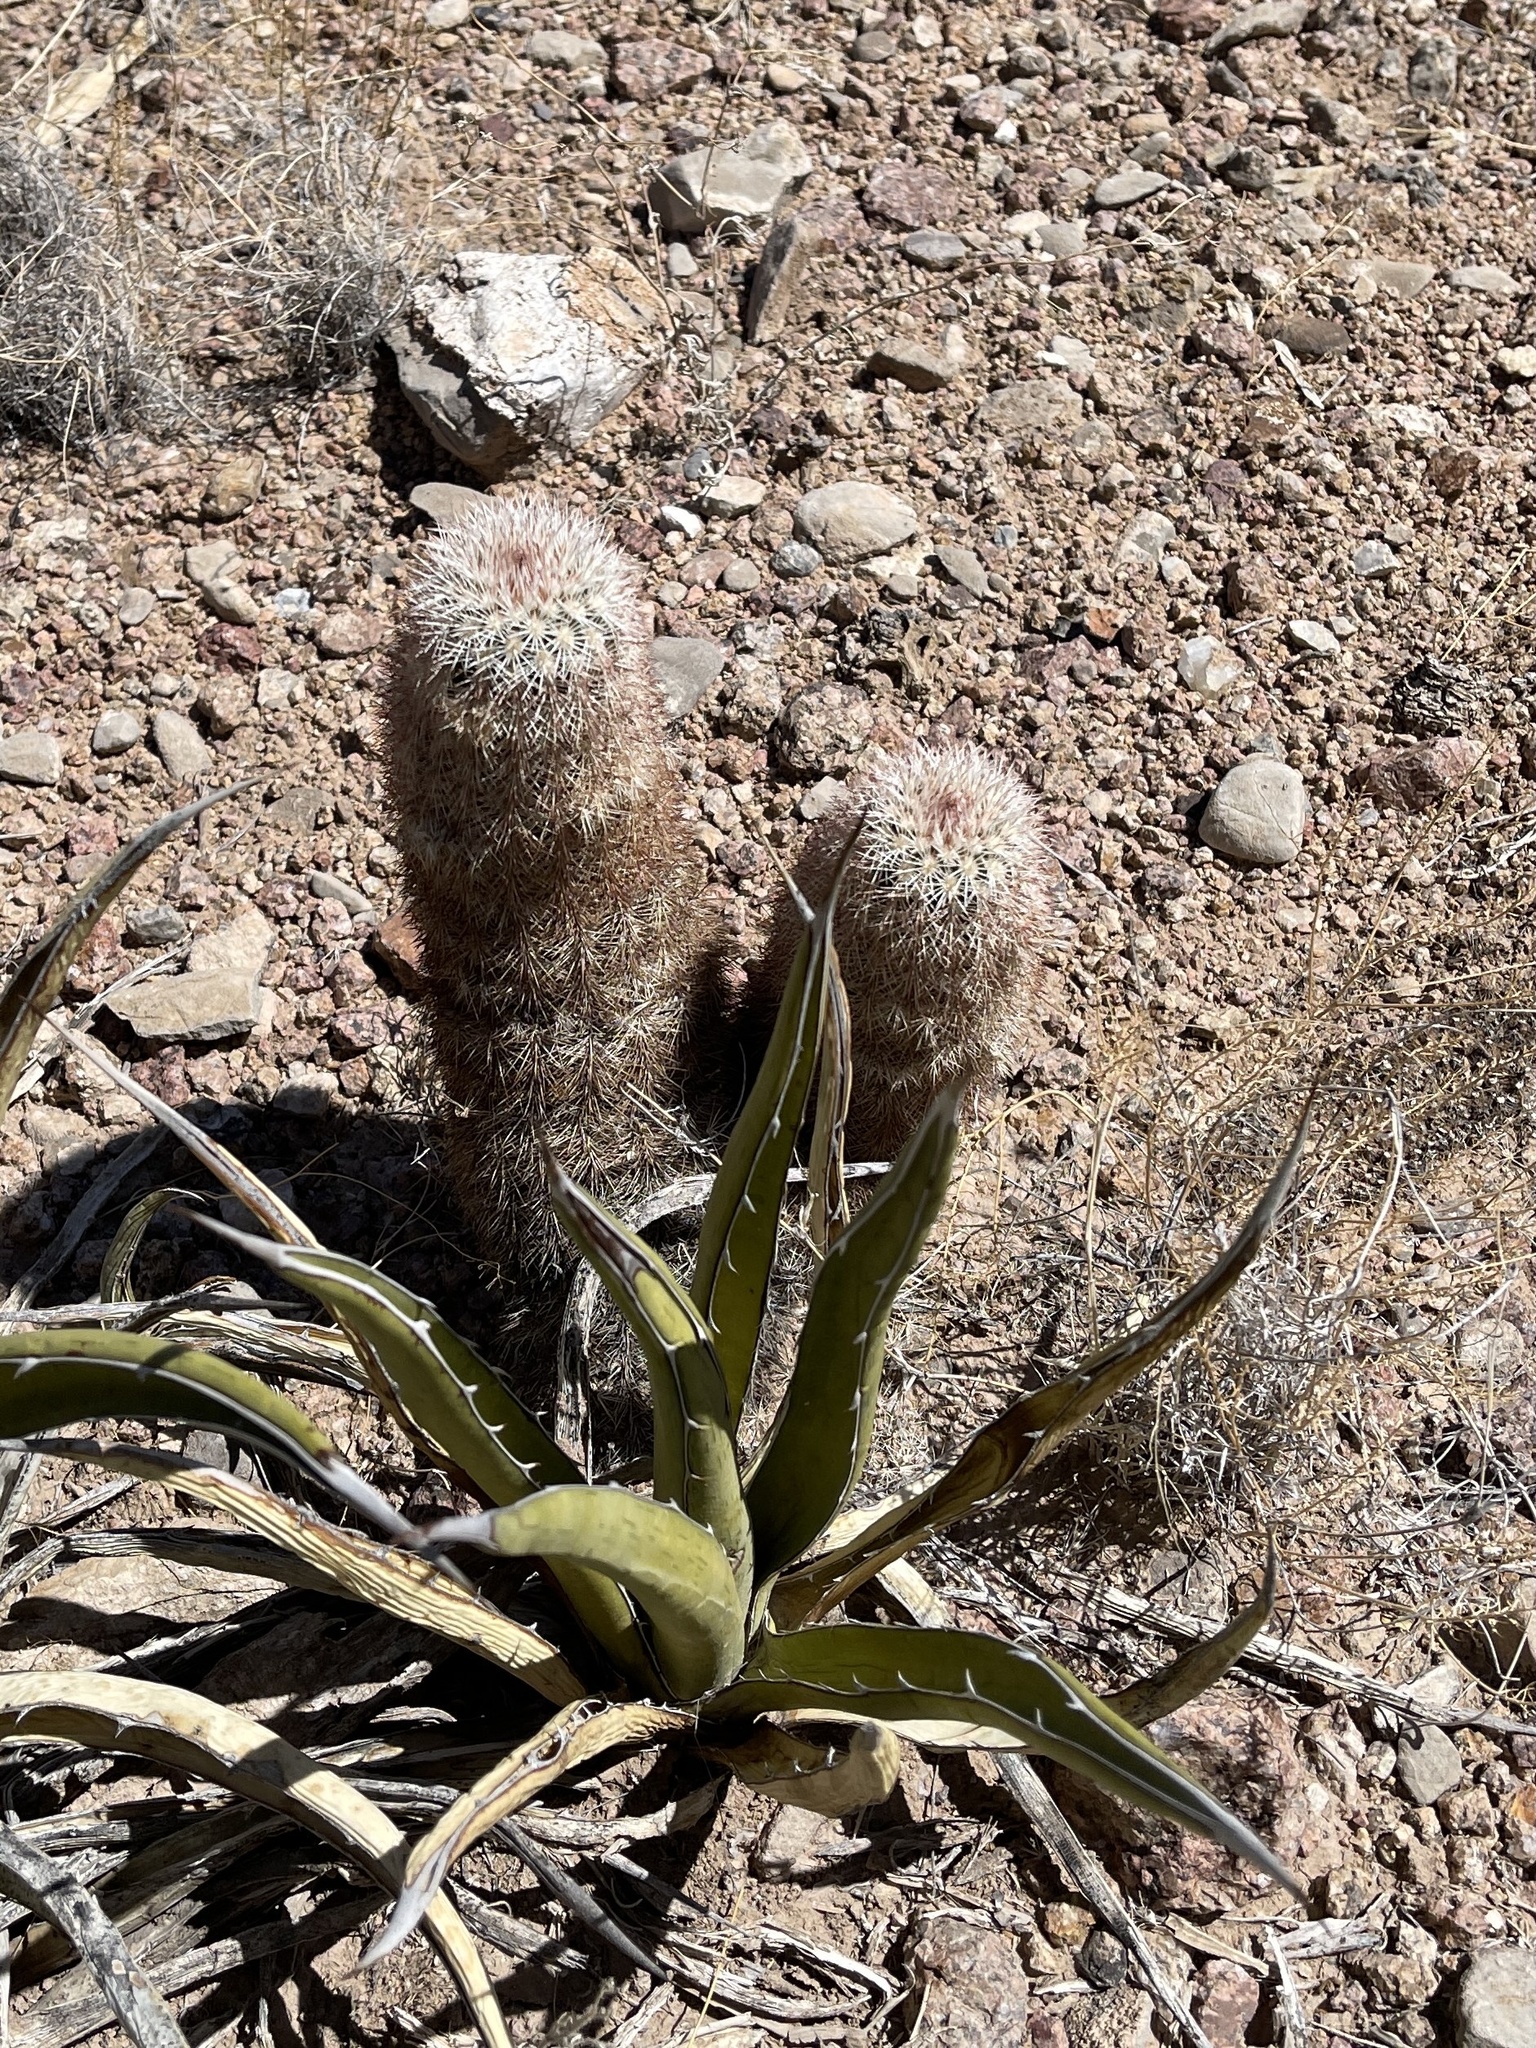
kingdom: Plantae
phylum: Tracheophyta
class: Magnoliopsida
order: Caryophyllales
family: Cactaceae
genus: Echinocereus
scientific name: Echinocereus dasyacanthus
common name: Spiny hedgehog cactus
